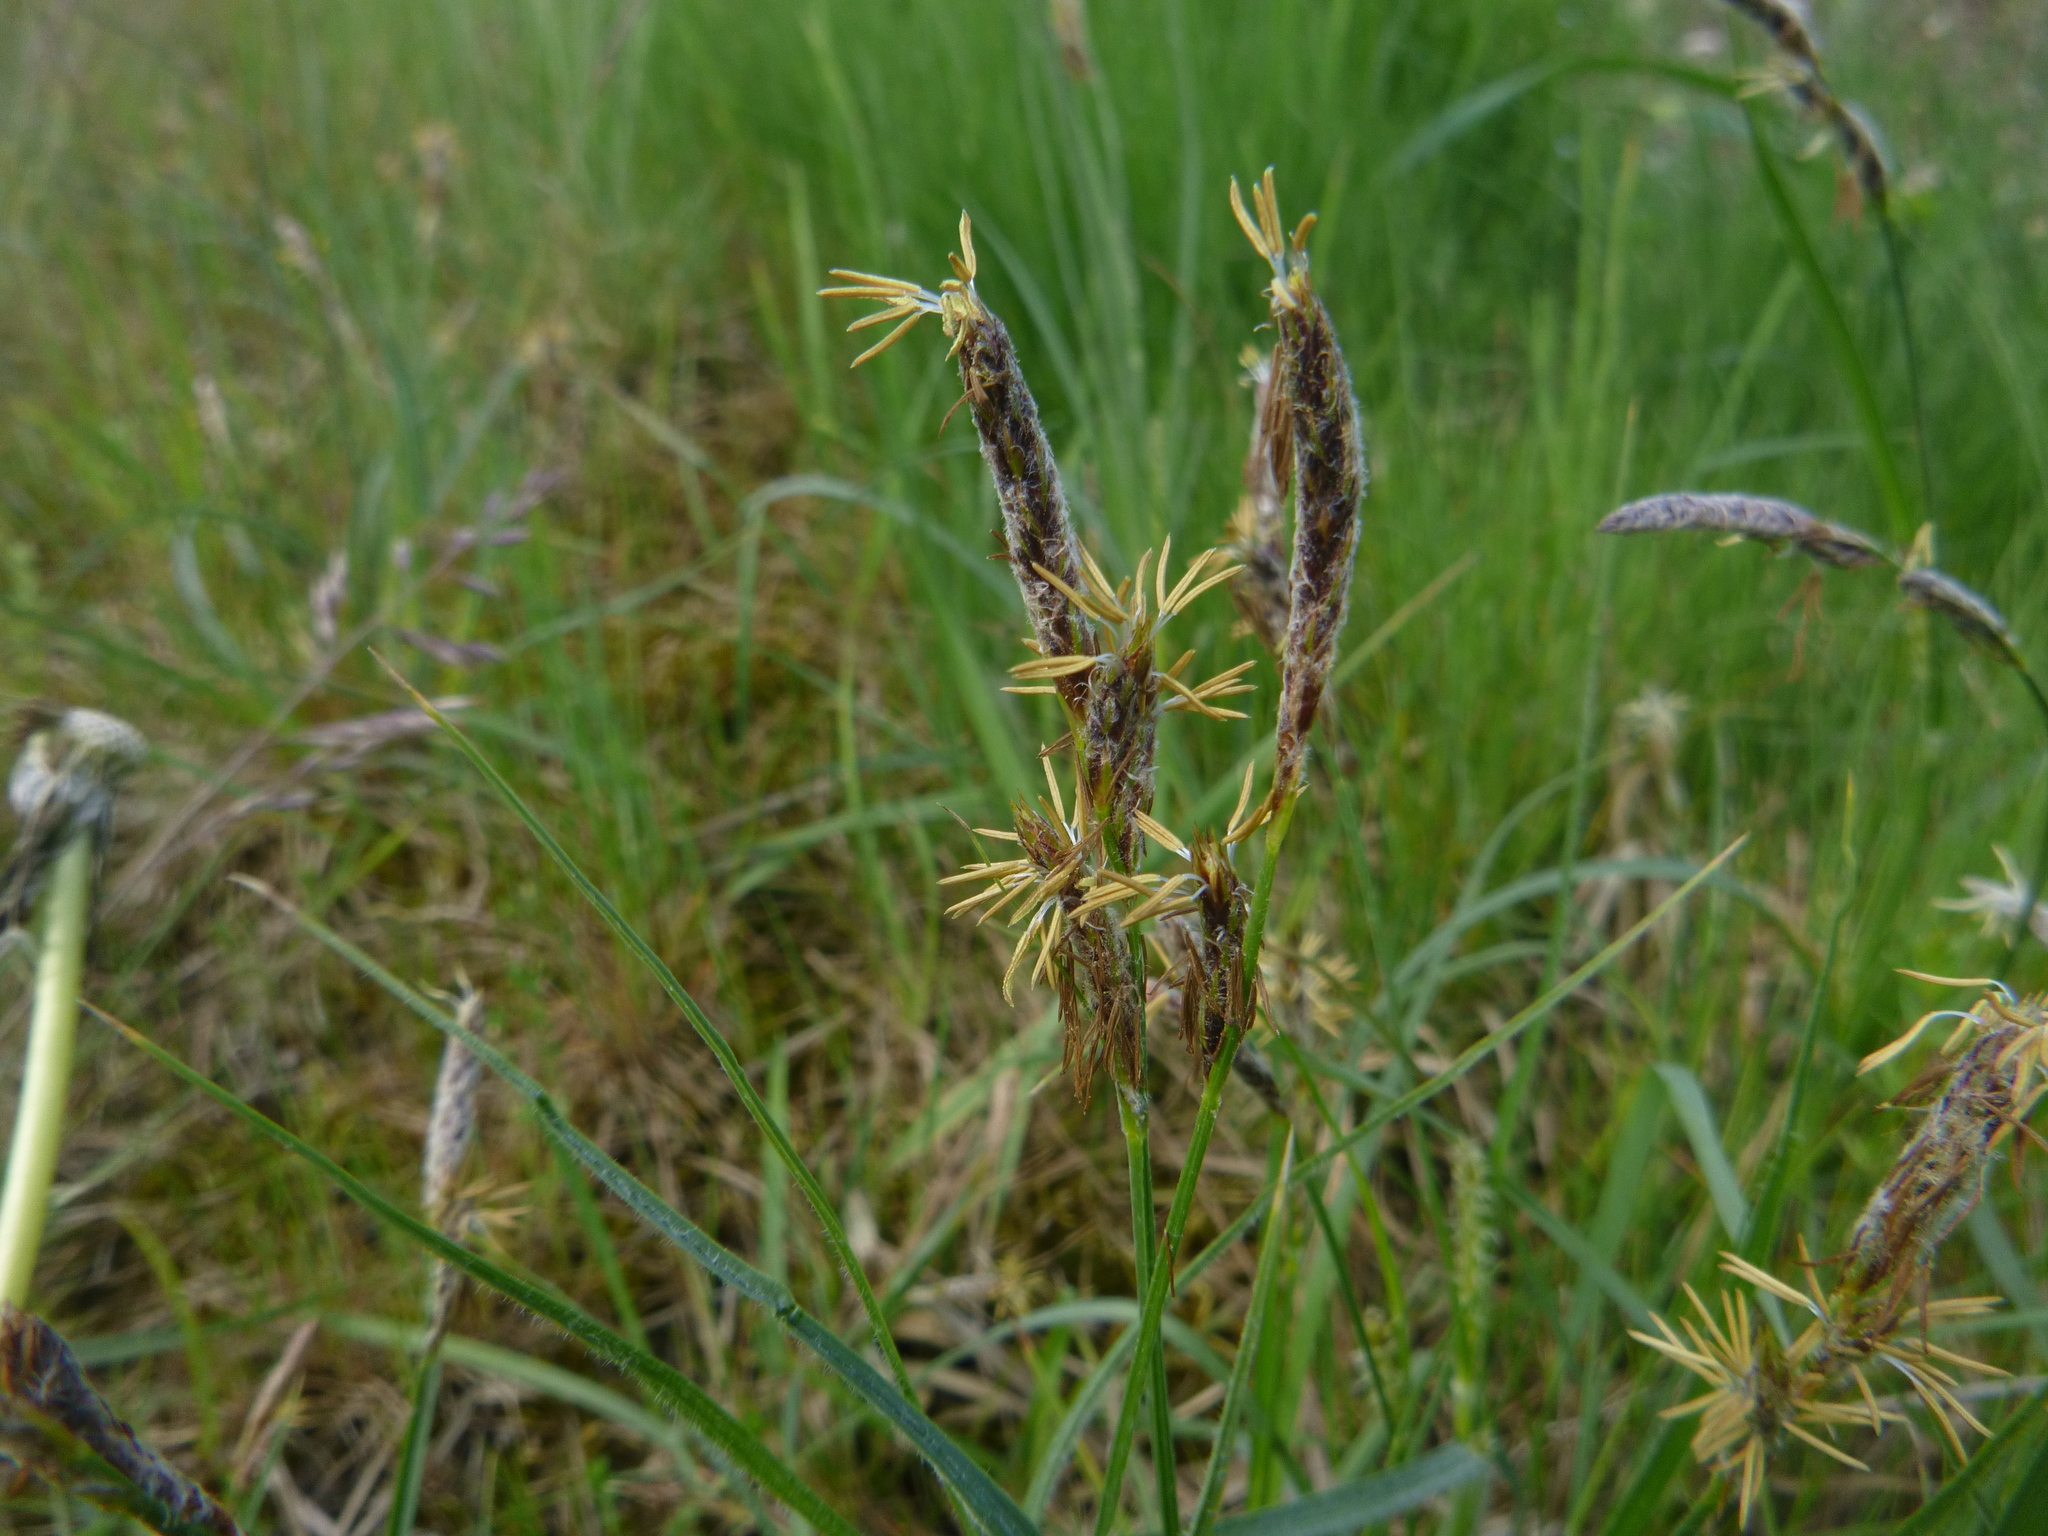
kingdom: Plantae
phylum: Tracheophyta
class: Liliopsida
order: Poales
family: Cyperaceae
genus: Carex
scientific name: Carex hirta
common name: Hairy sedge
